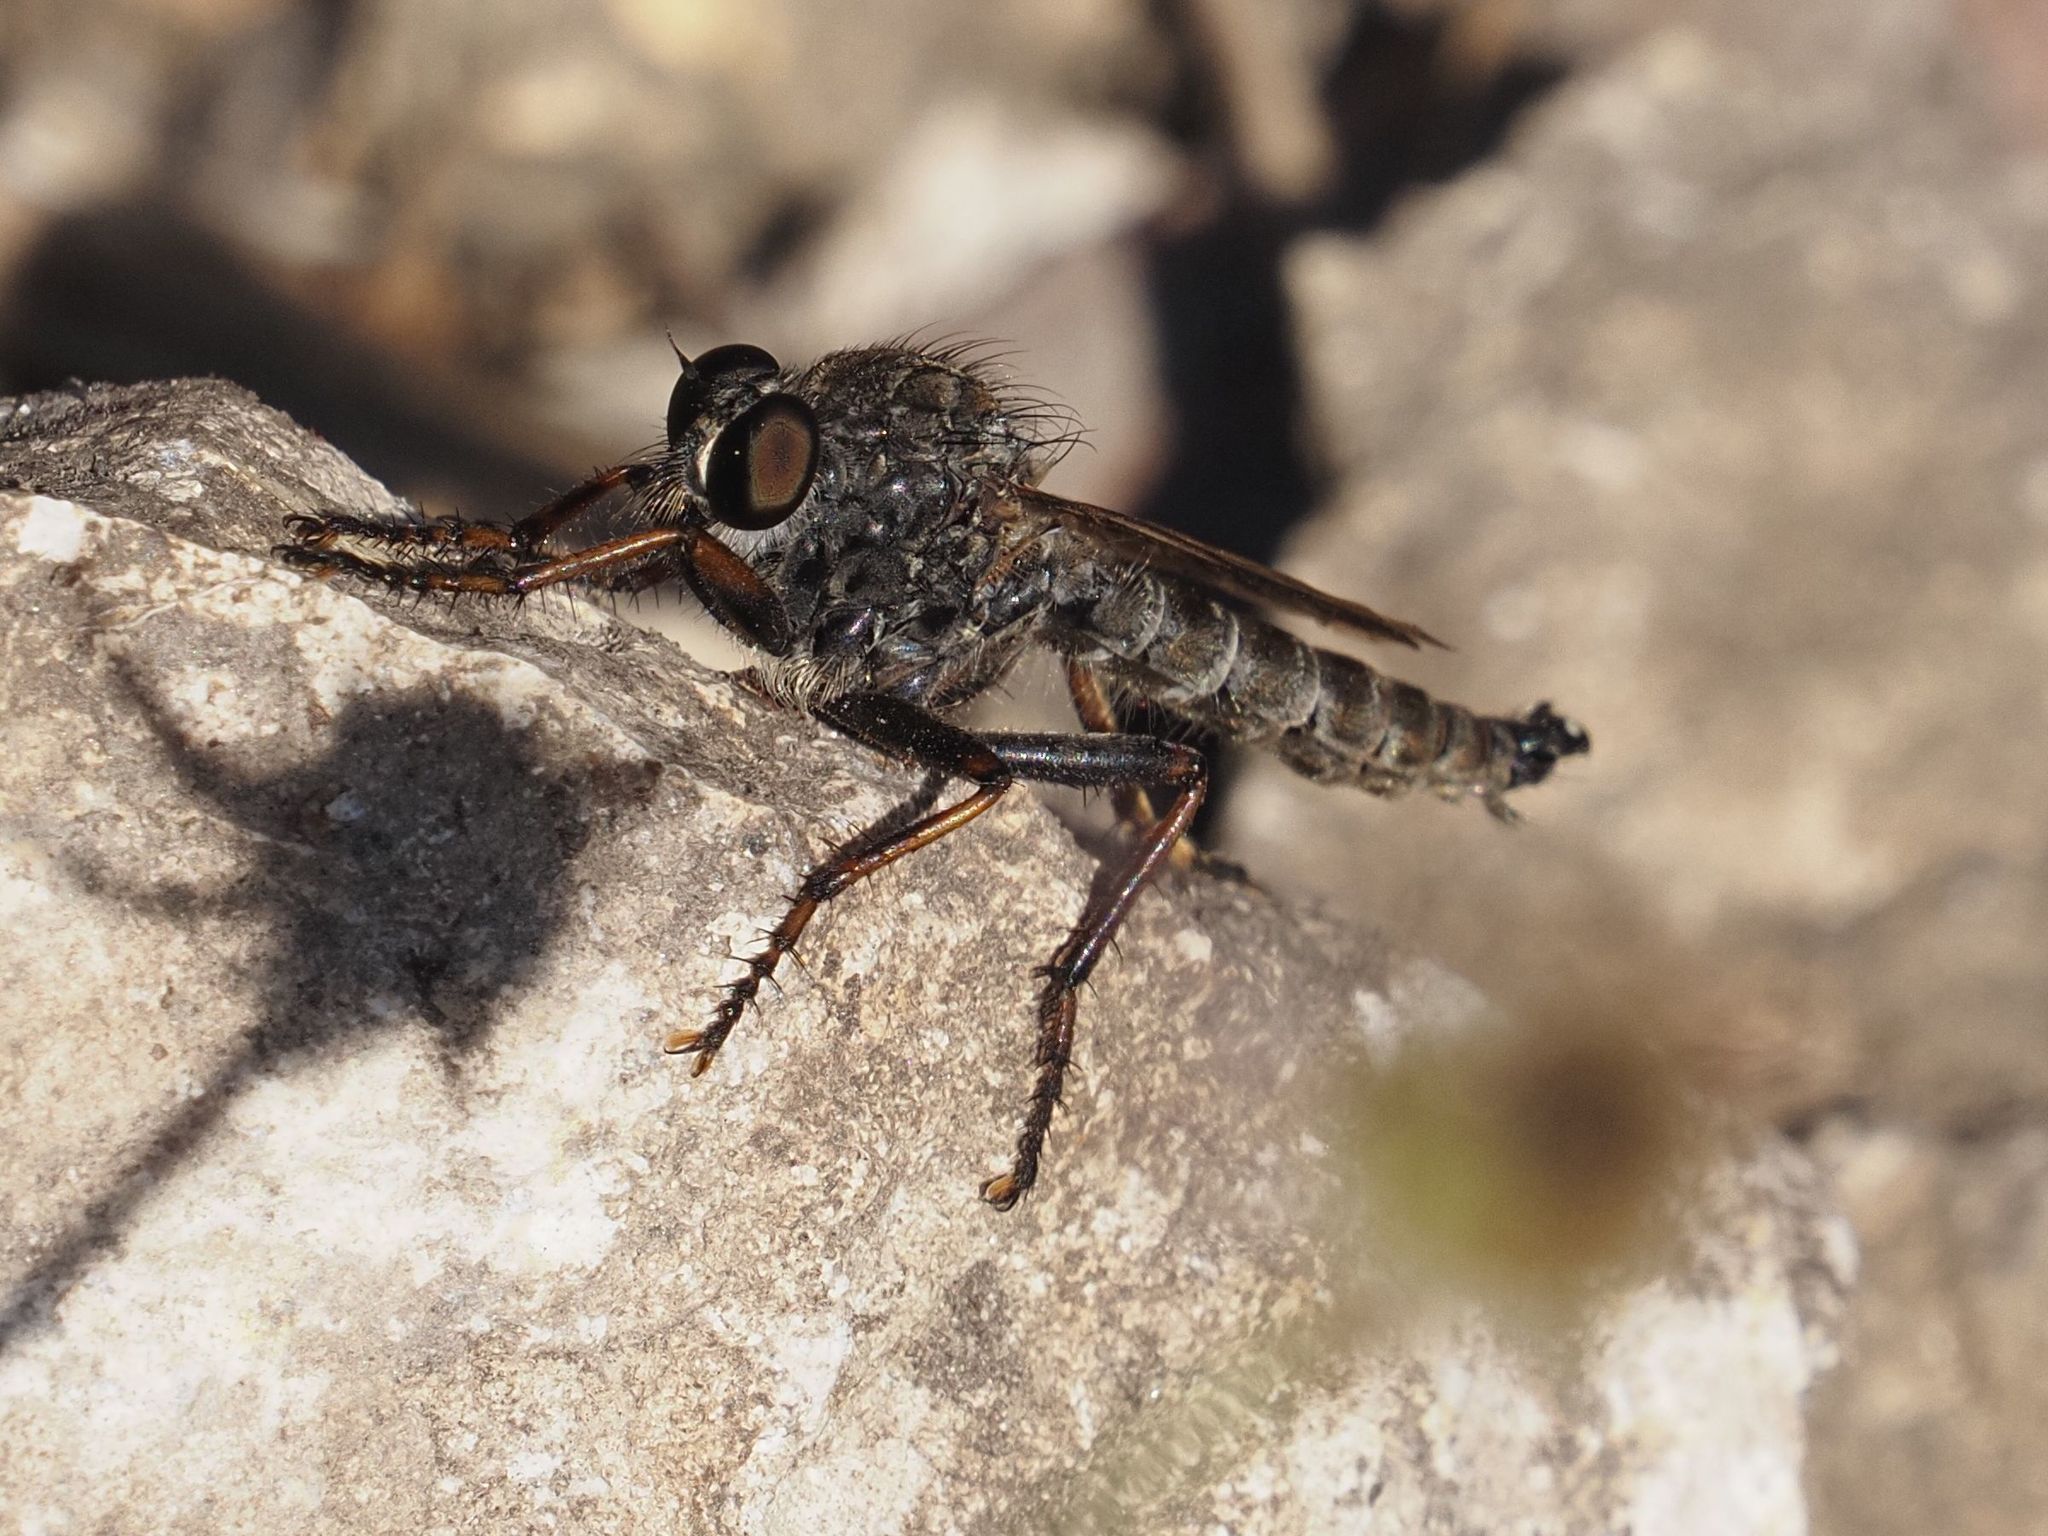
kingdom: Animalia
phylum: Arthropoda
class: Insecta
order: Diptera
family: Asilidae
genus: Machimus
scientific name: Machimus atricapillus
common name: Kite-tailed robberfly
